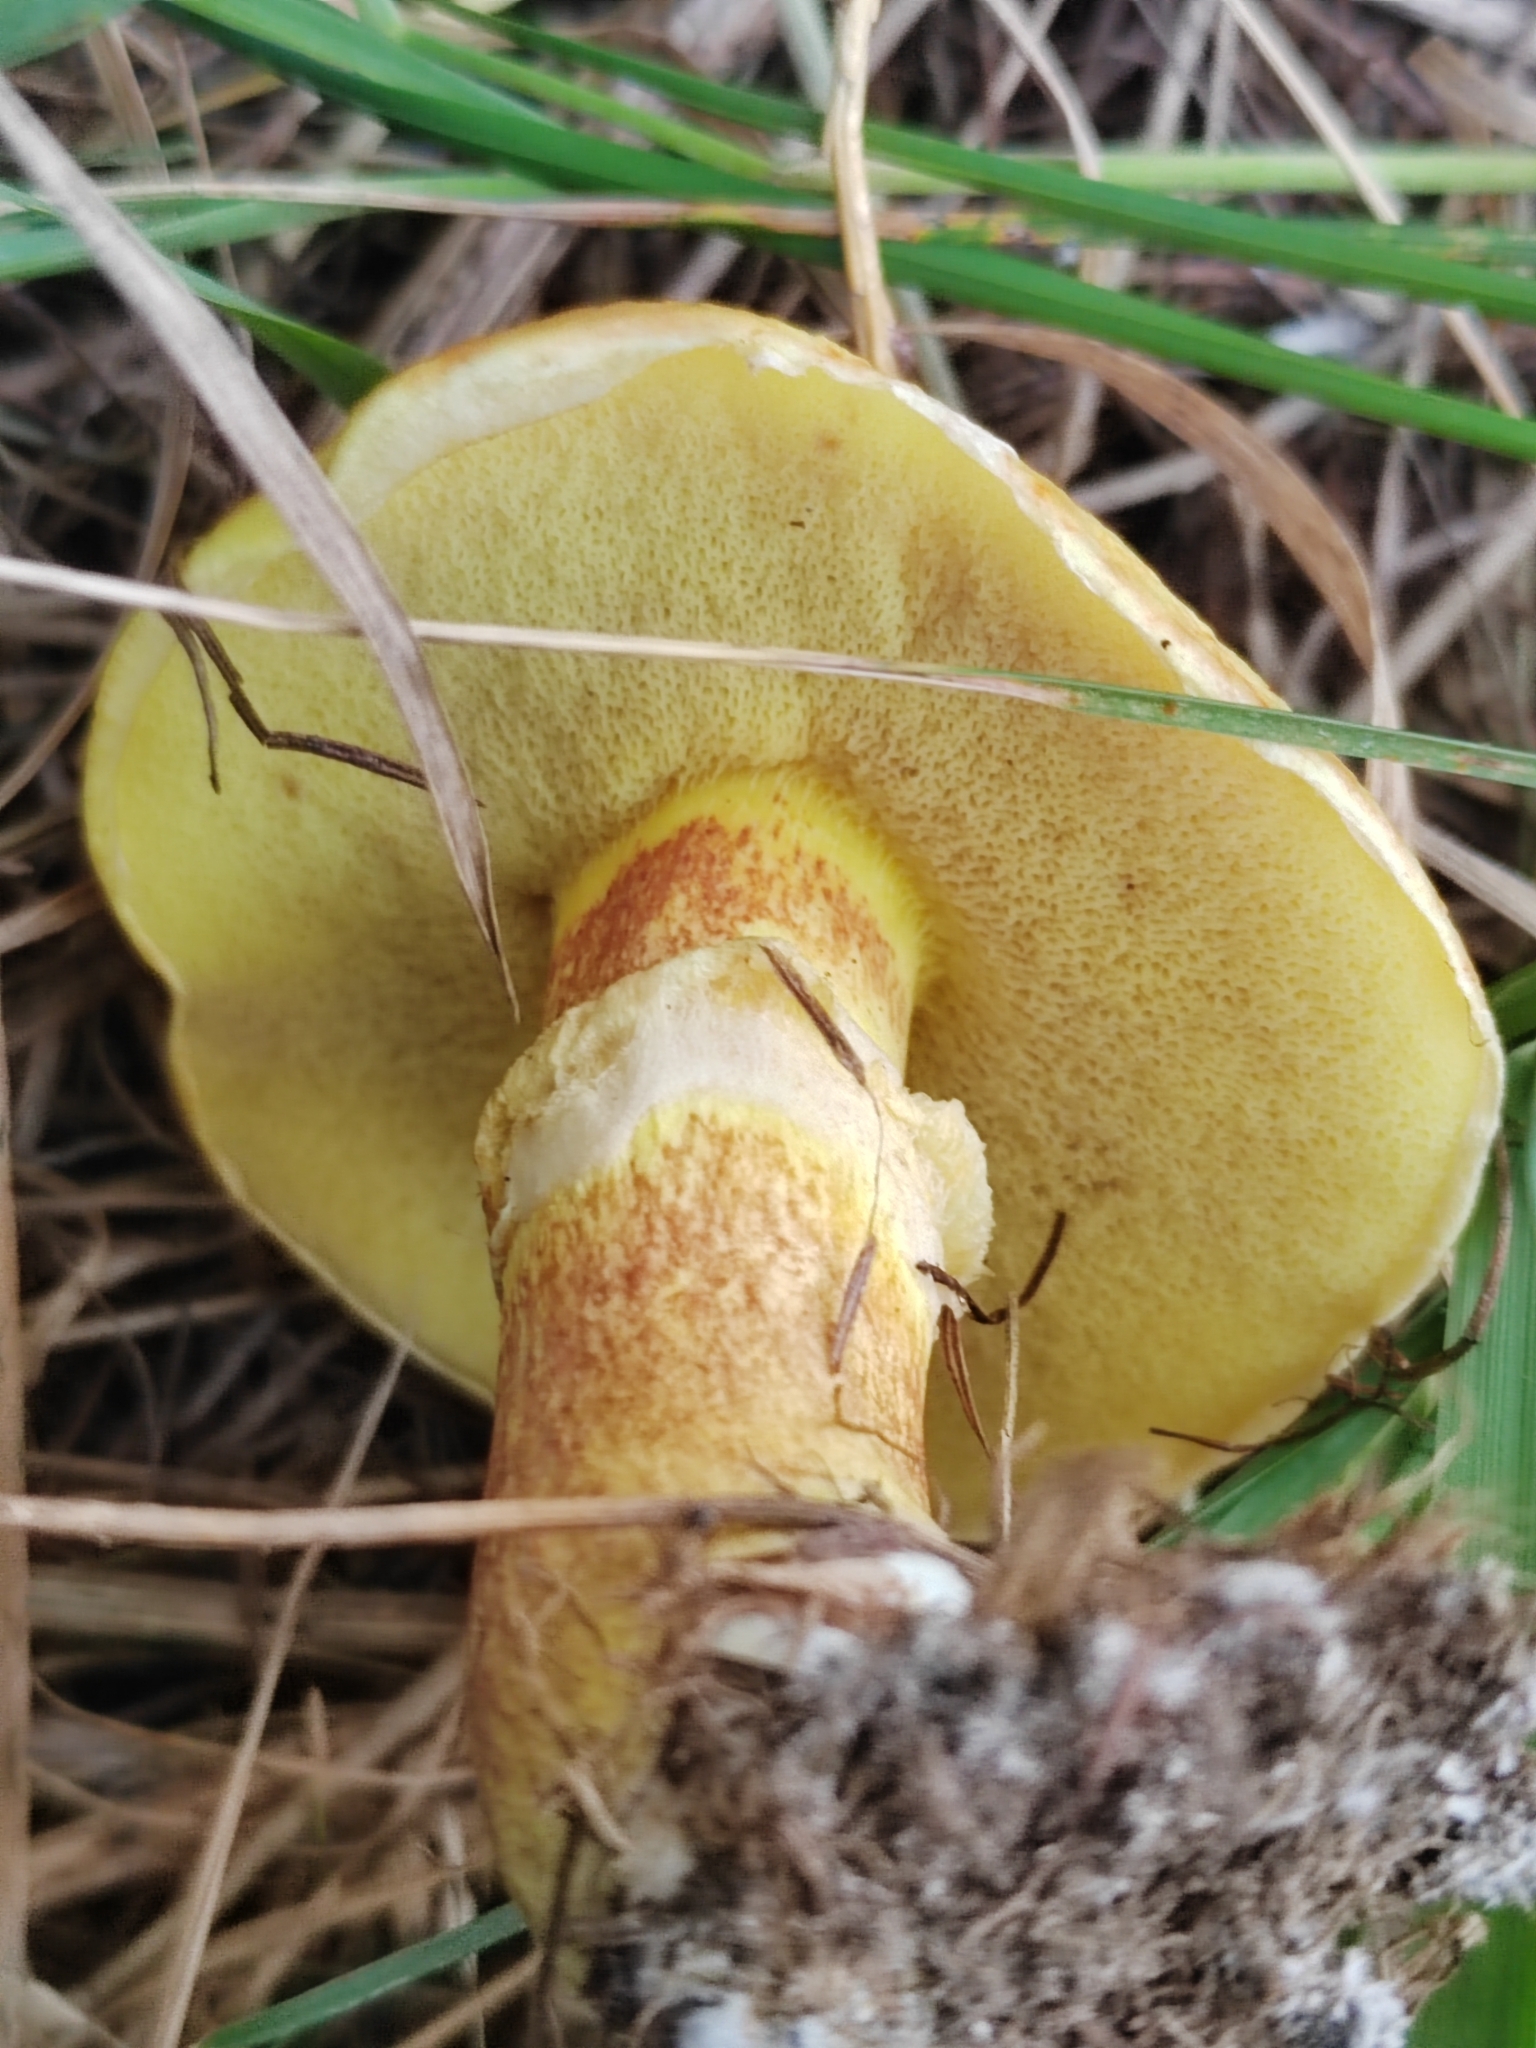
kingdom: Fungi
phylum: Basidiomycota
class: Agaricomycetes
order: Boletales
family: Suillaceae
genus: Suillus
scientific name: Suillus grevillei
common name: Larch bolete
